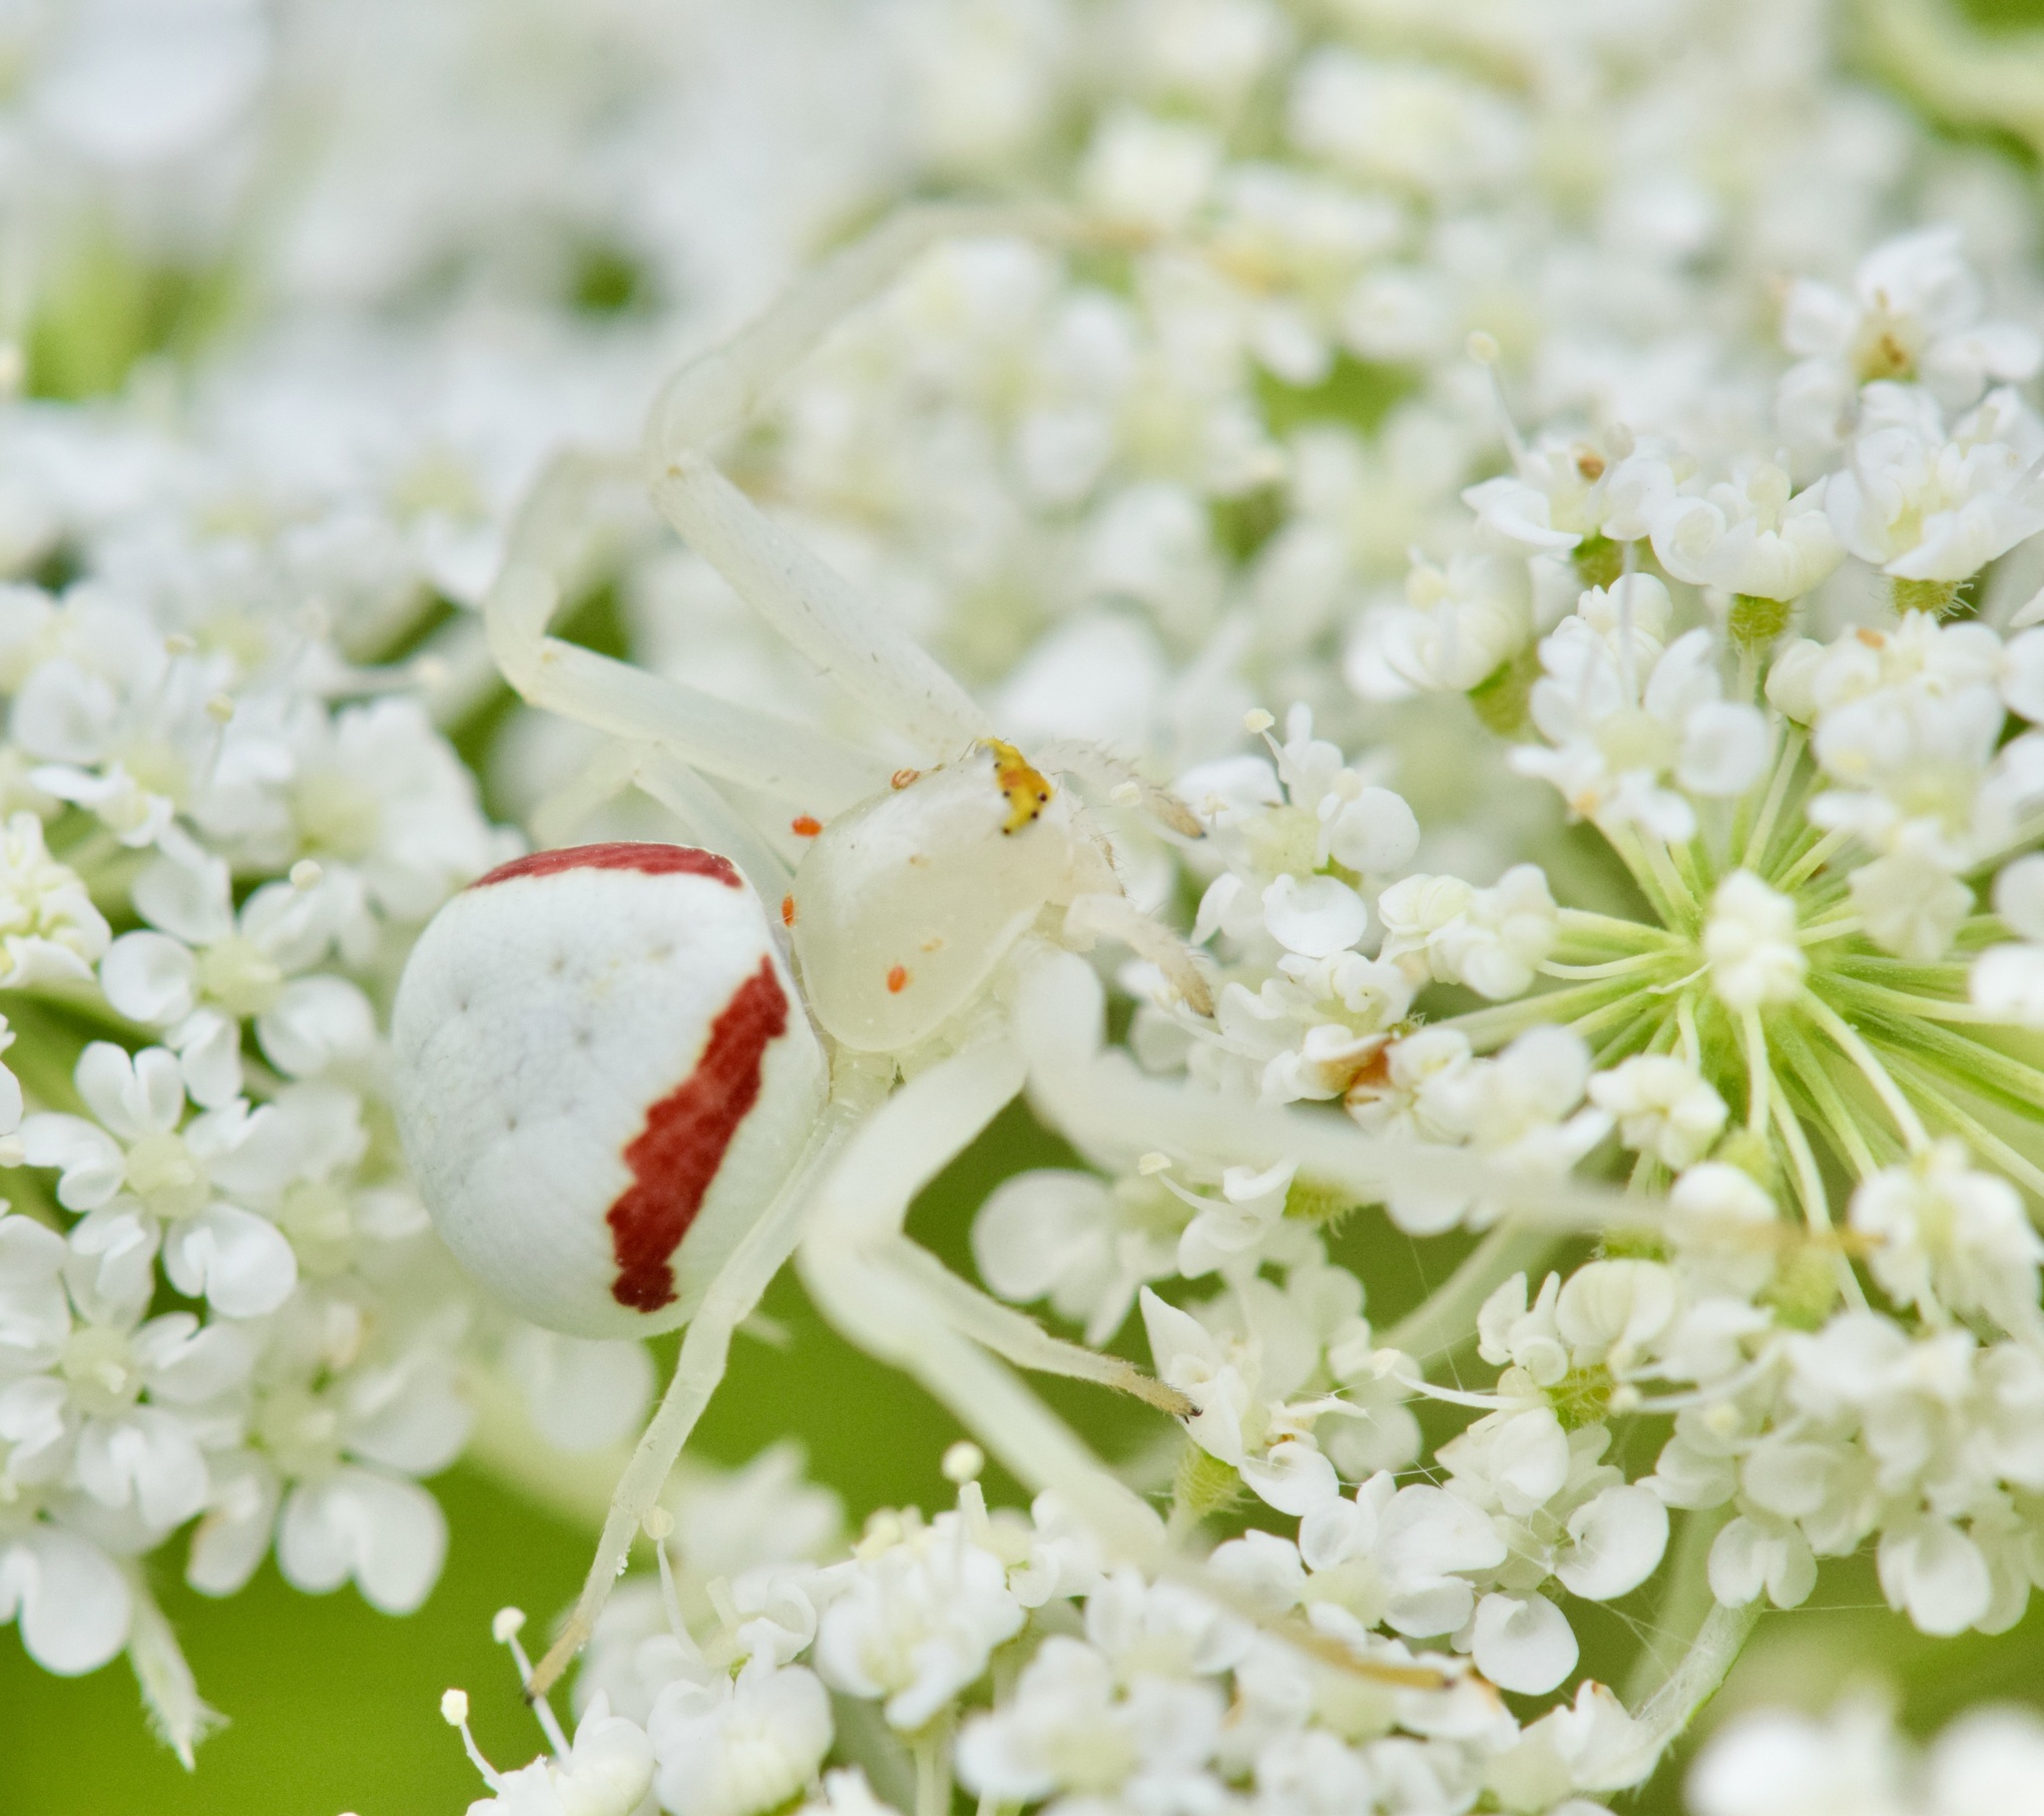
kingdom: Animalia
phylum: Arthropoda
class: Arachnida
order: Araneae
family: Thomisidae
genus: Misumena
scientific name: Misumena vatia
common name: Goldenrod crab spider
